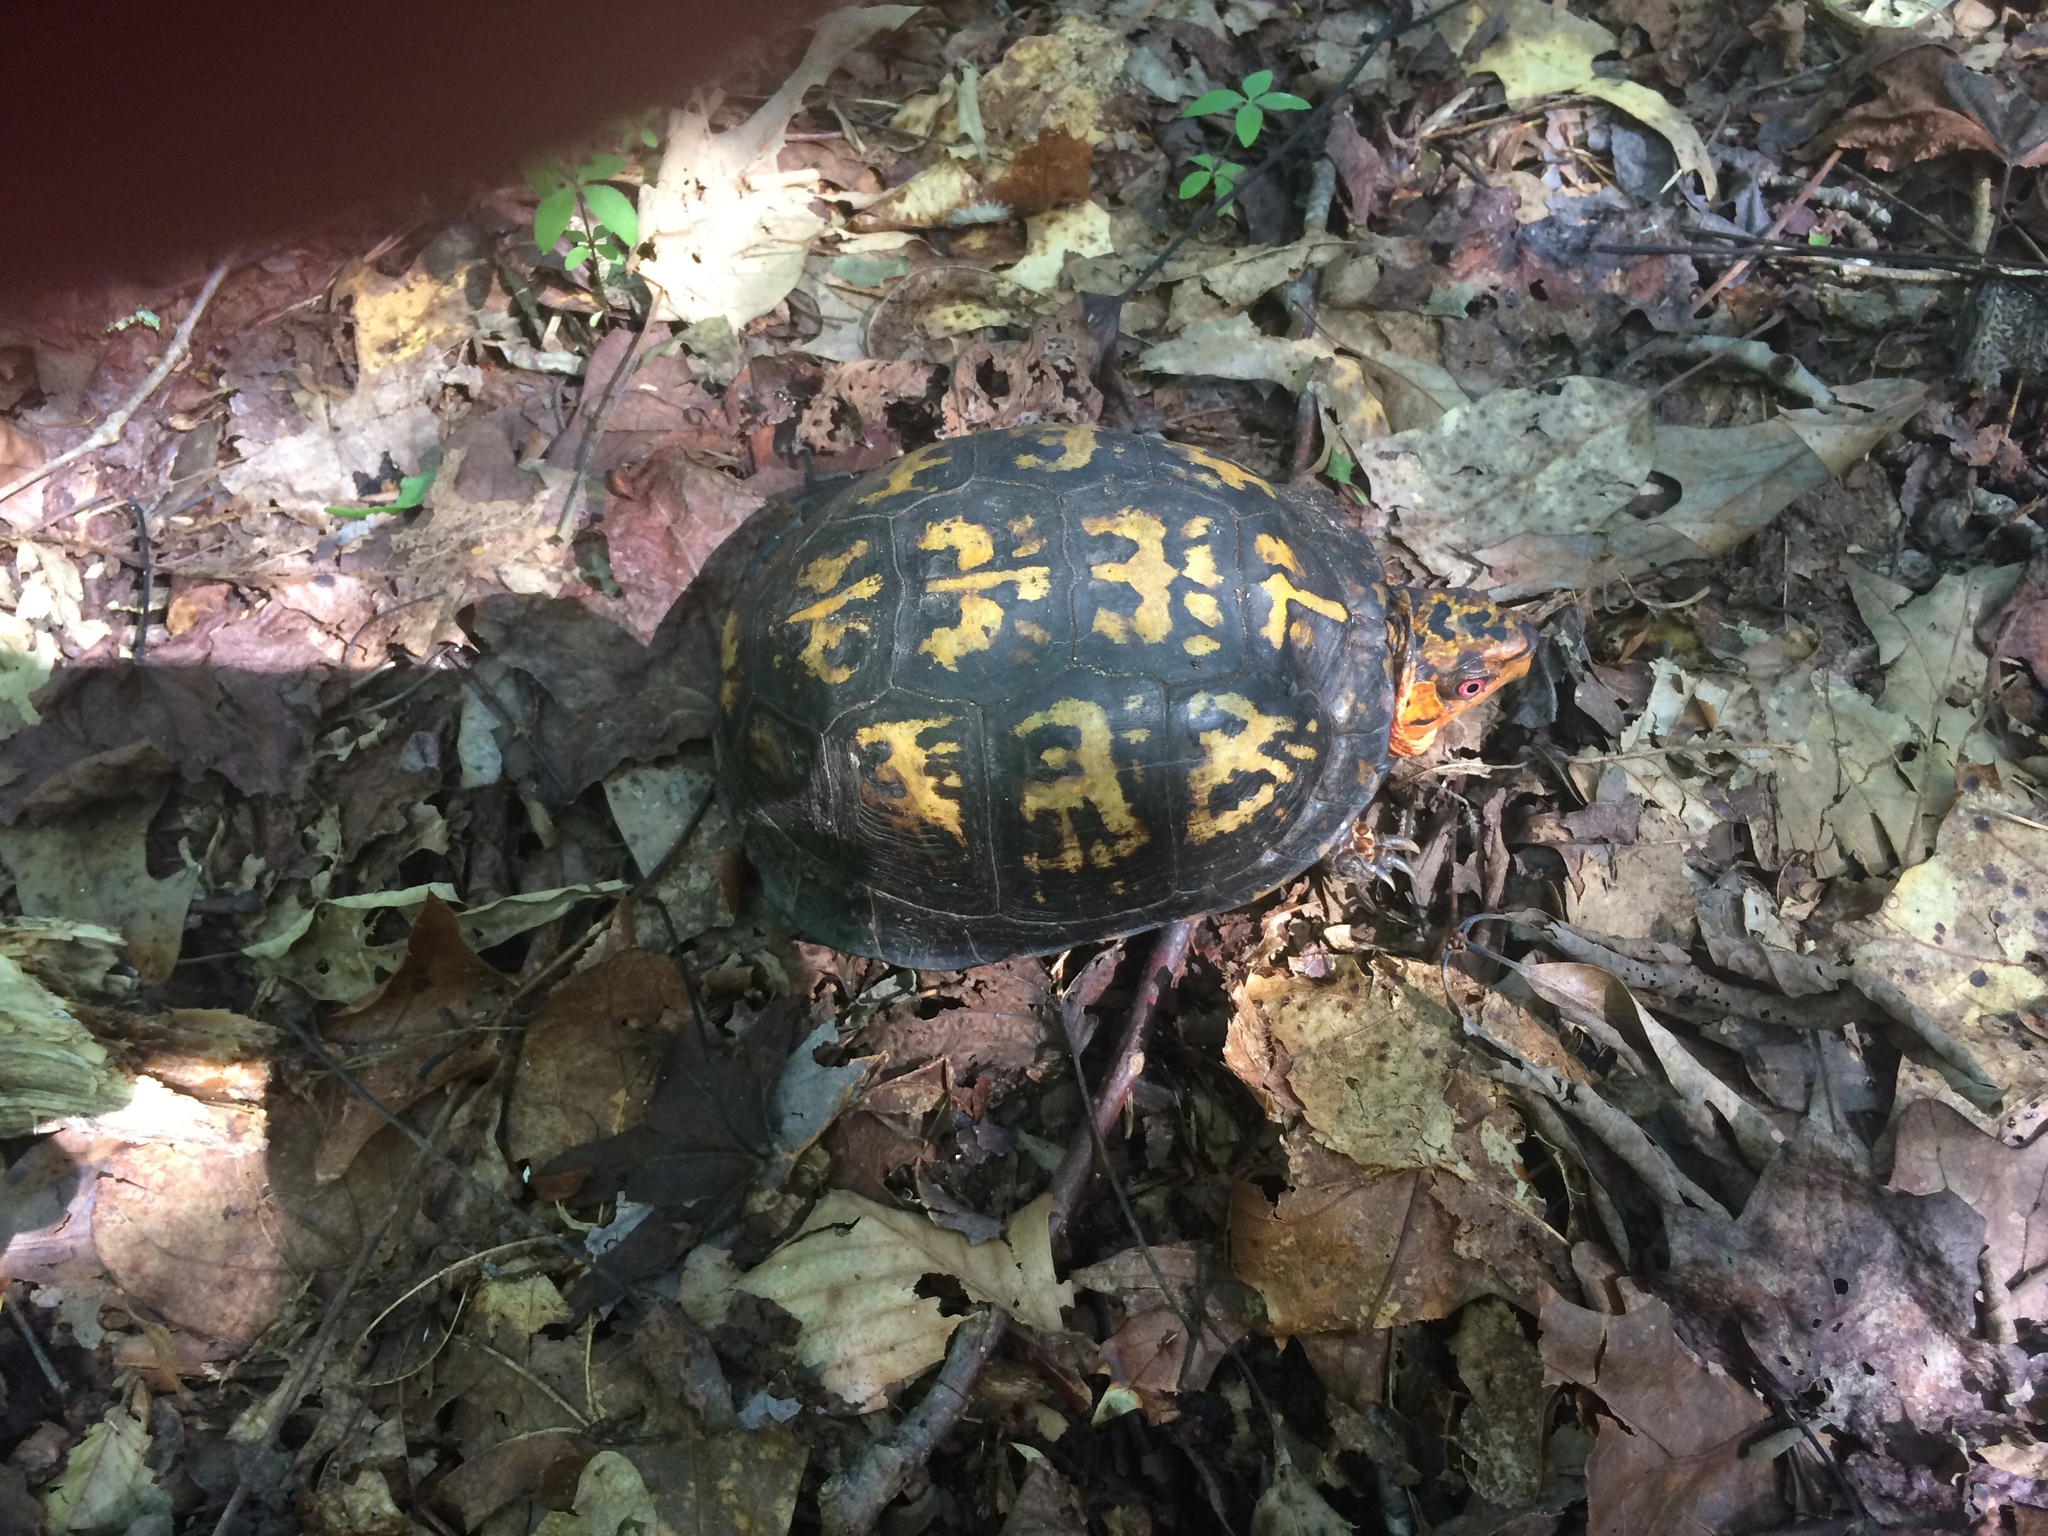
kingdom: Animalia
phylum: Chordata
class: Testudines
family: Emydidae
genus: Terrapene
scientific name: Terrapene carolina
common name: Common box turtle
